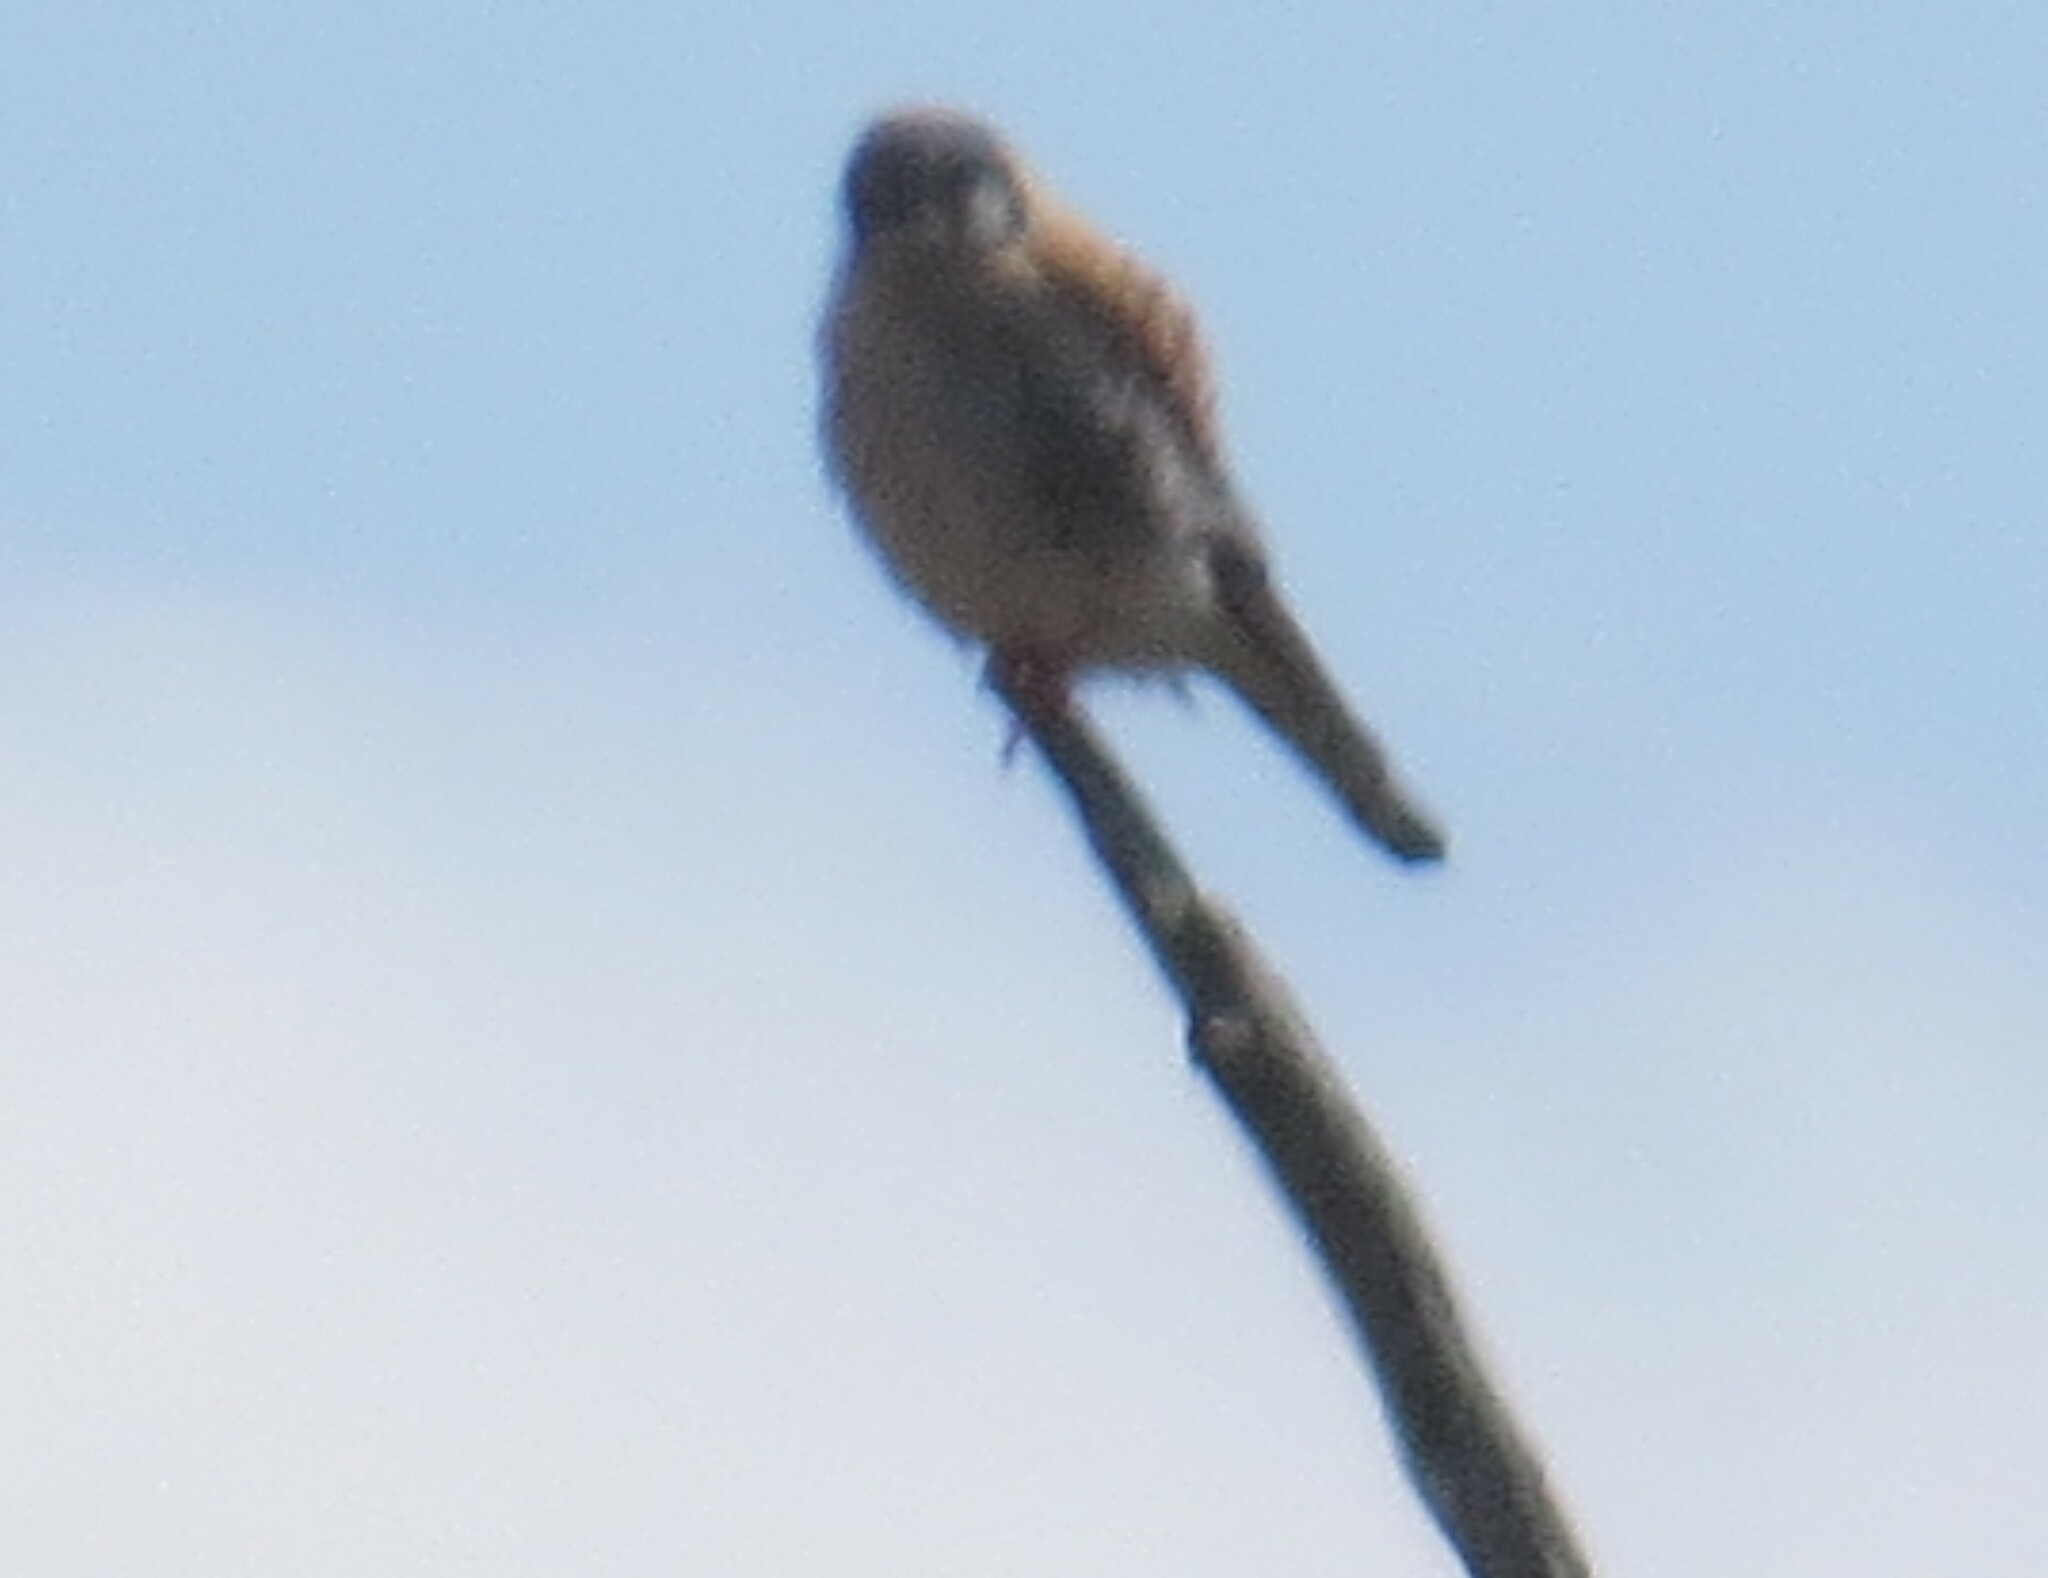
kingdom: Animalia
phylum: Chordata
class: Aves
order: Falconiformes
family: Falconidae
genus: Falco
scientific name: Falco sparverius
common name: American kestrel
